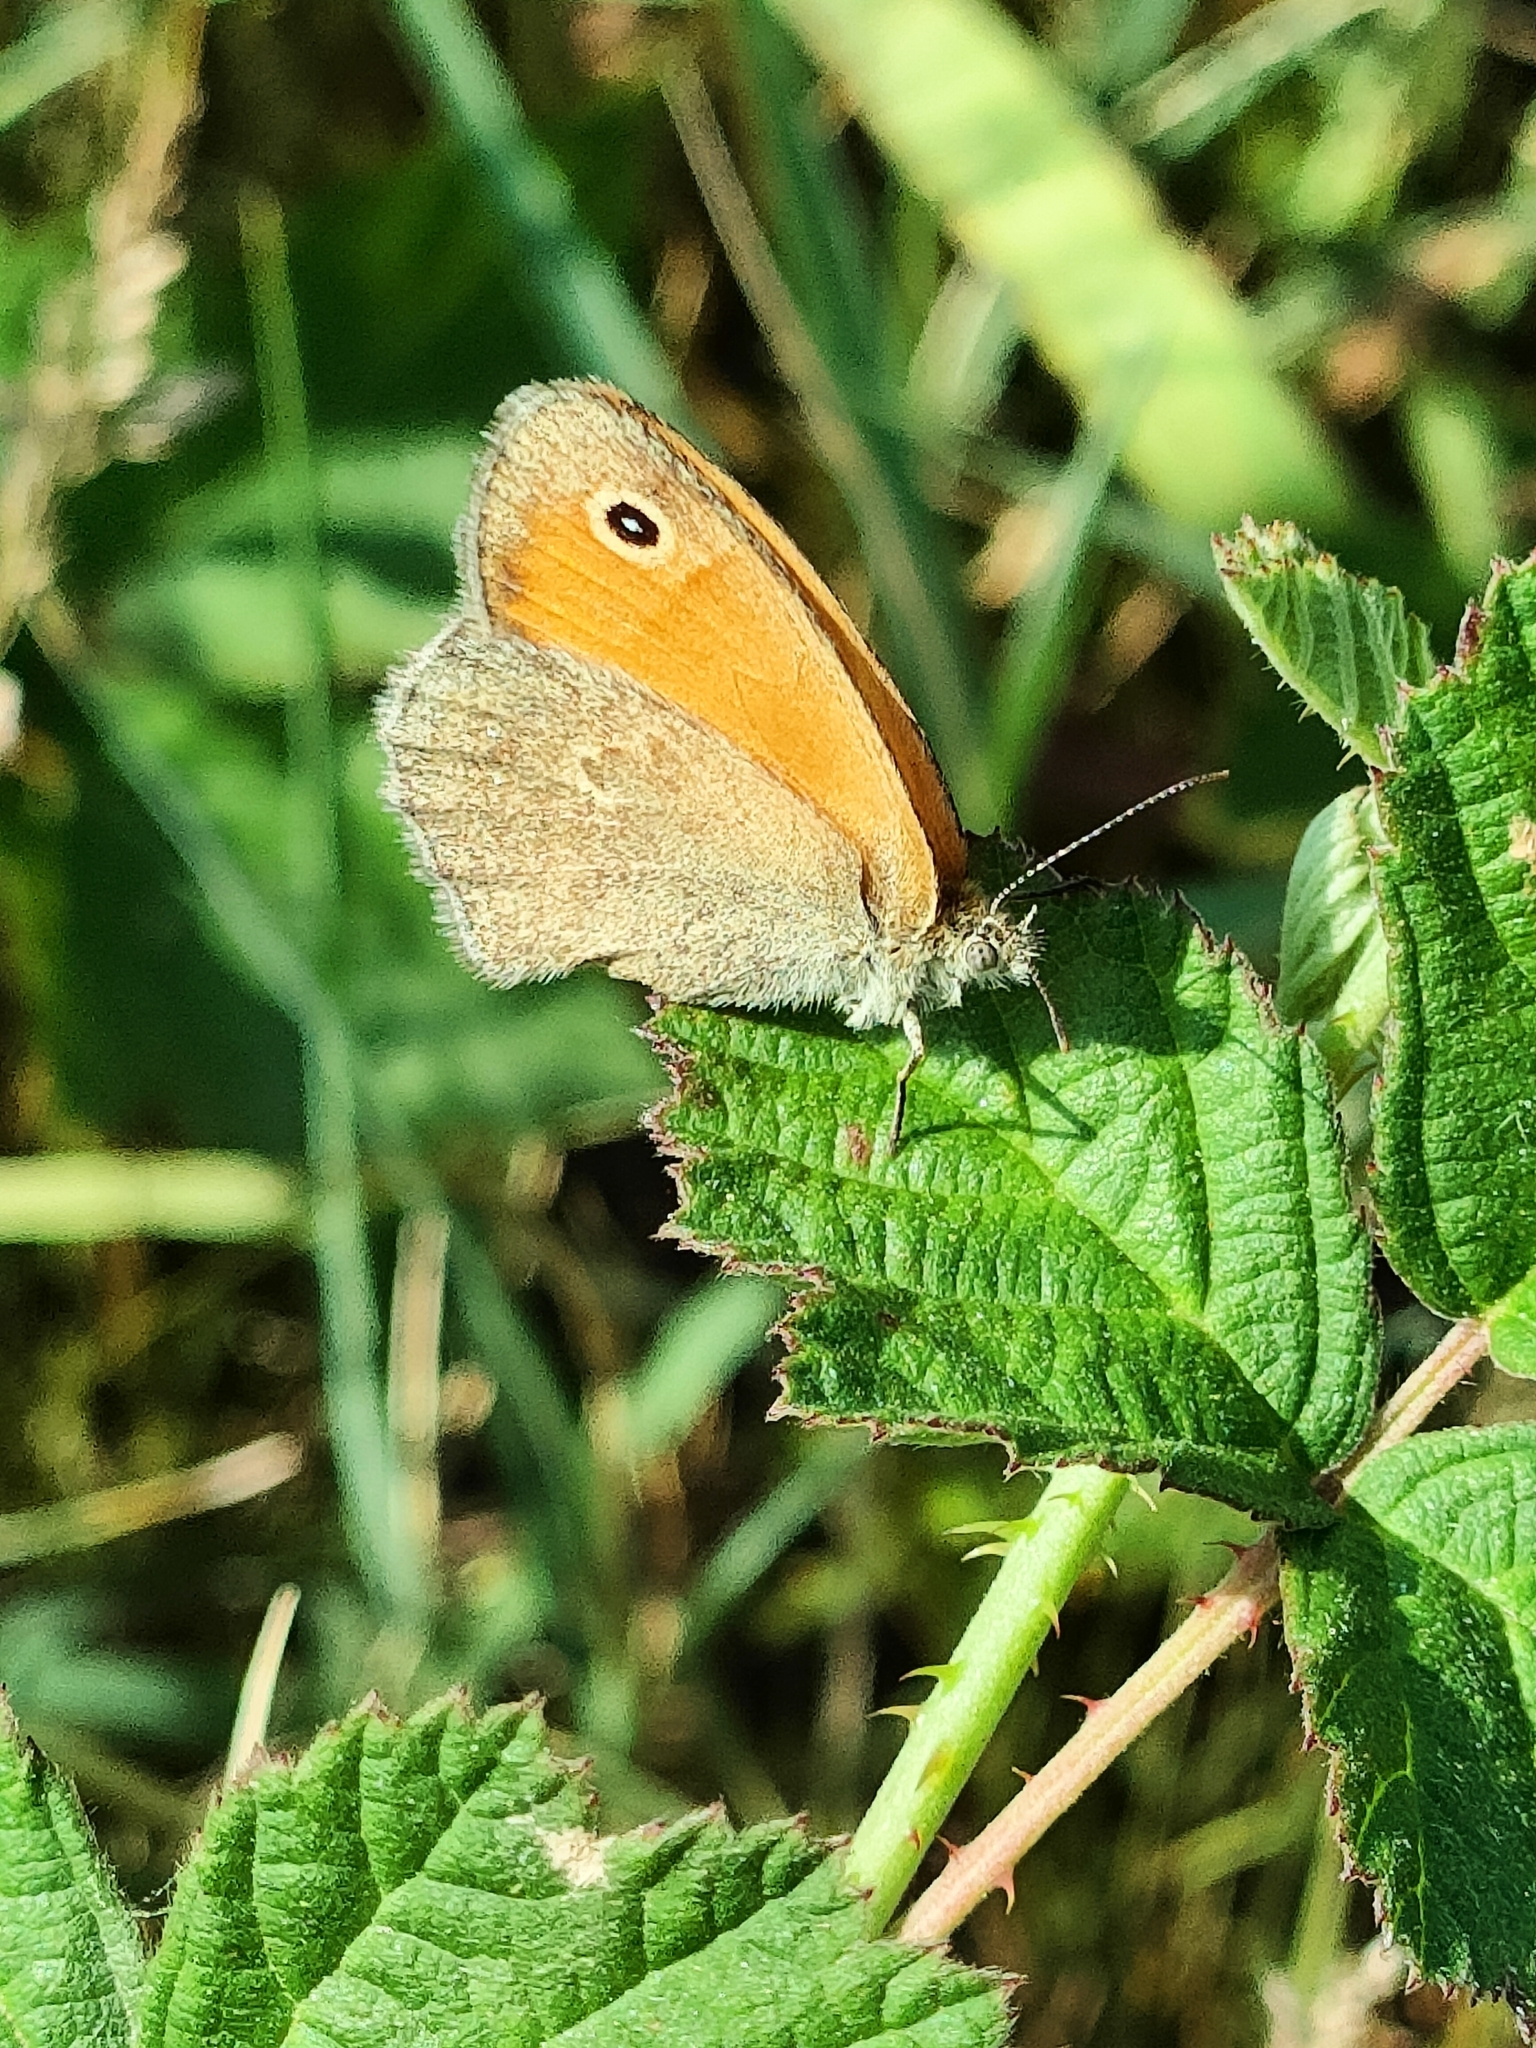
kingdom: Animalia
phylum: Arthropoda
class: Insecta
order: Lepidoptera
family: Nymphalidae
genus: Coenonympha
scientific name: Coenonympha pamphilus
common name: Small heath
